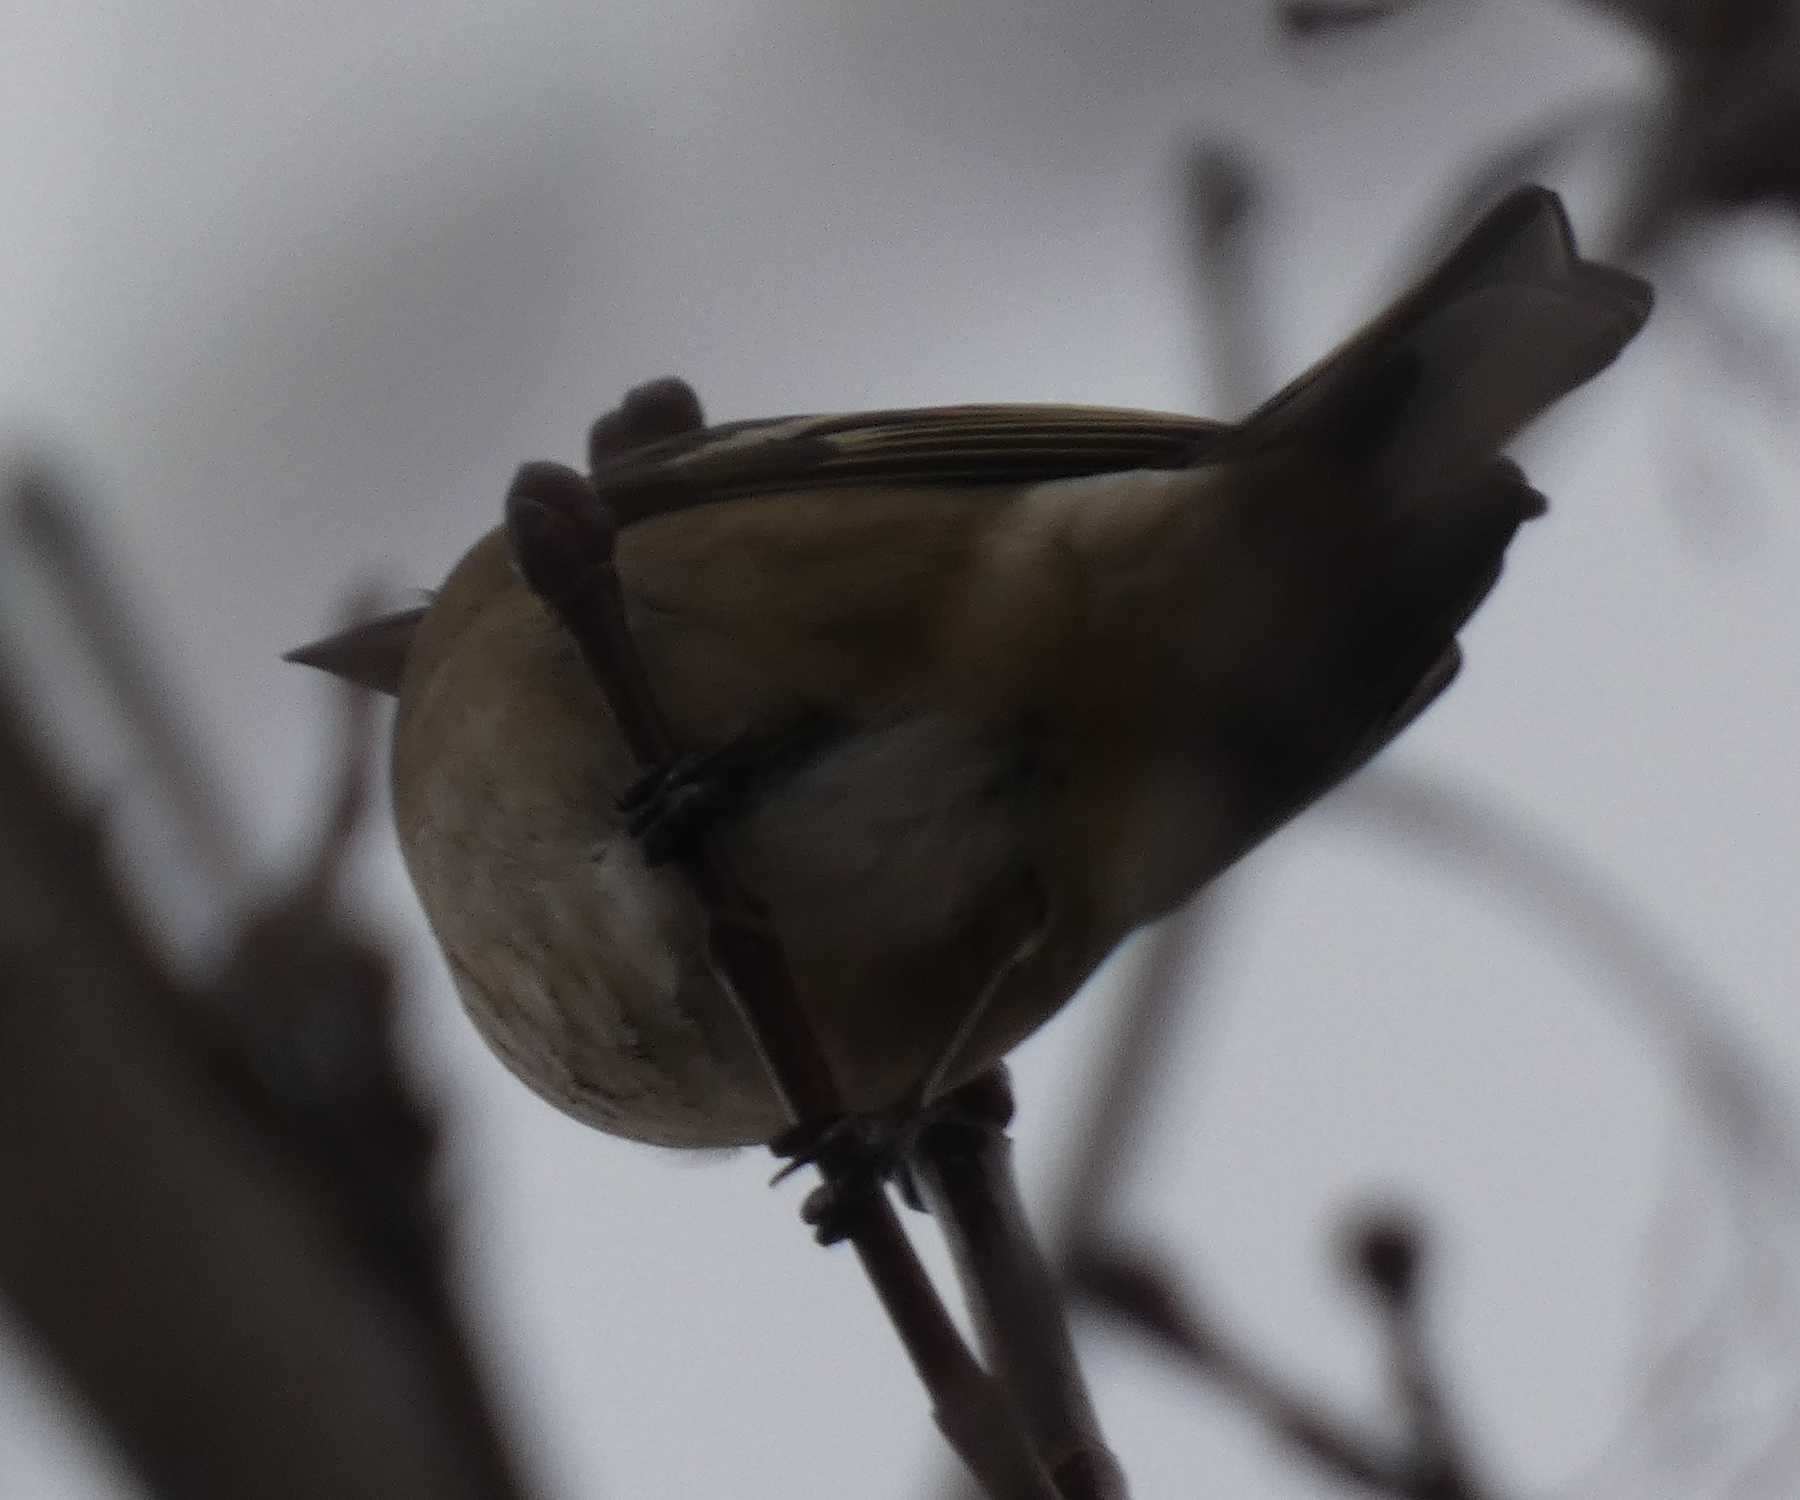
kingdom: Animalia
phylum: Chordata
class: Aves
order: Passeriformes
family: Fringillidae
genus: Fringilla
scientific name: Fringilla coelebs
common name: Common chaffinch
